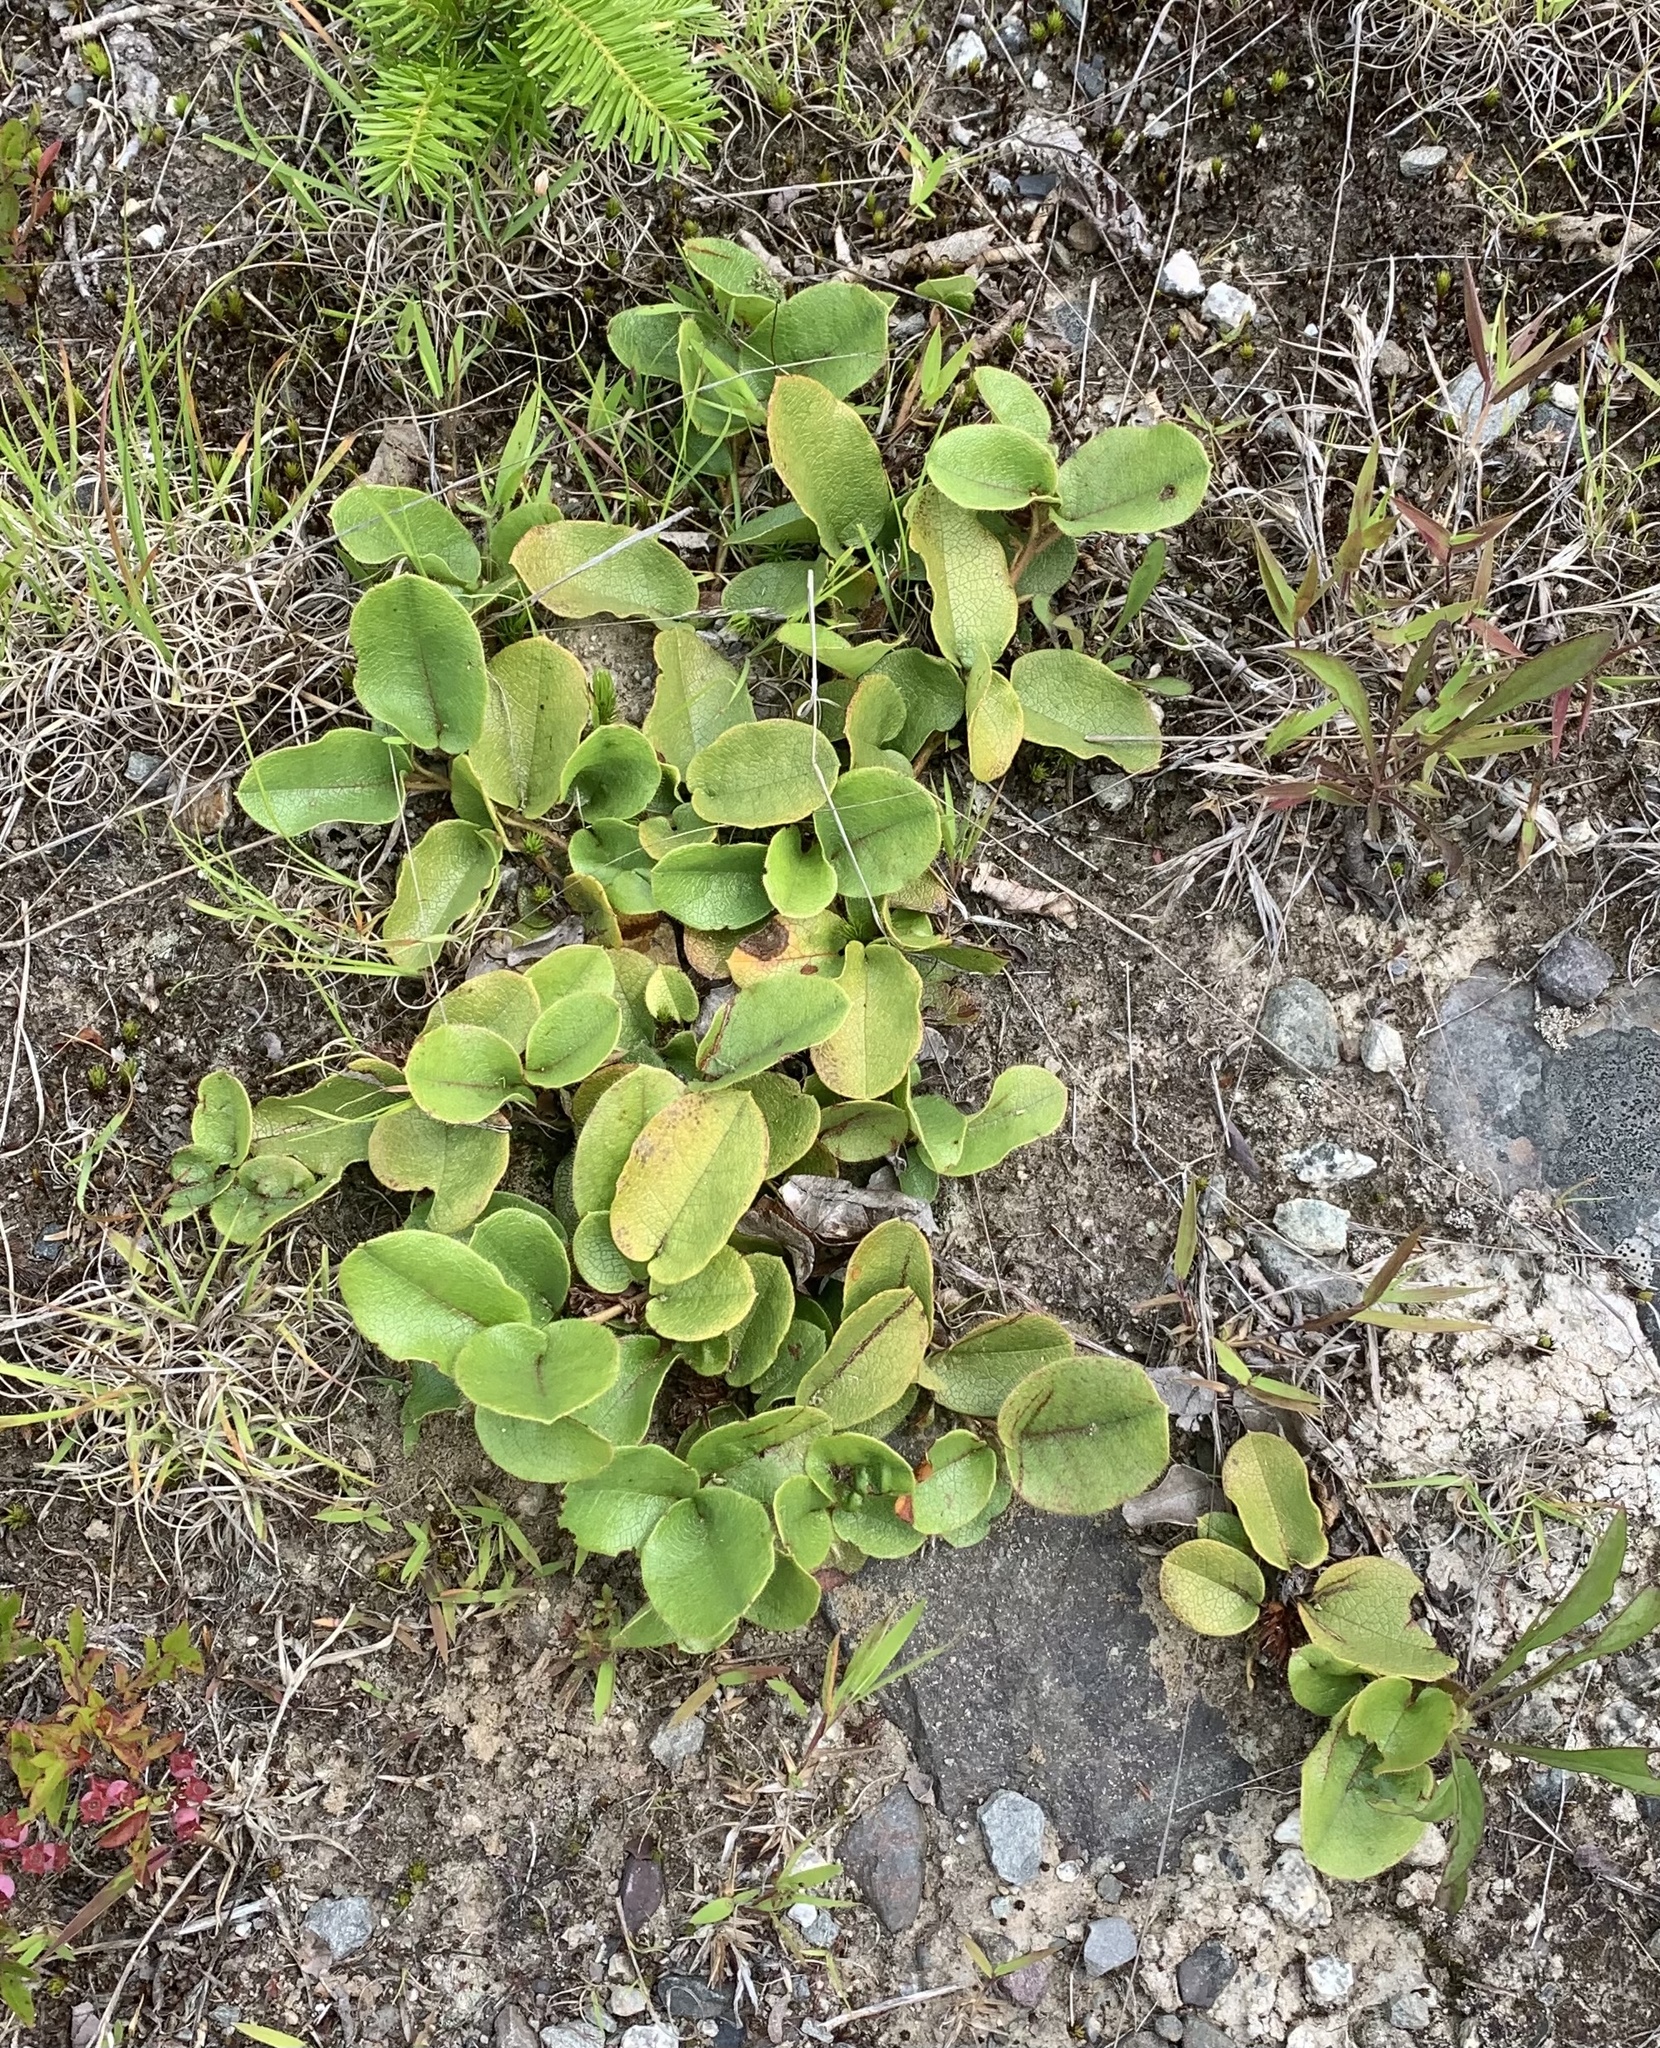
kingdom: Plantae
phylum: Tracheophyta
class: Magnoliopsida
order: Ericales
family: Ericaceae
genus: Epigaea
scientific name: Epigaea repens
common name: Gravelroot
